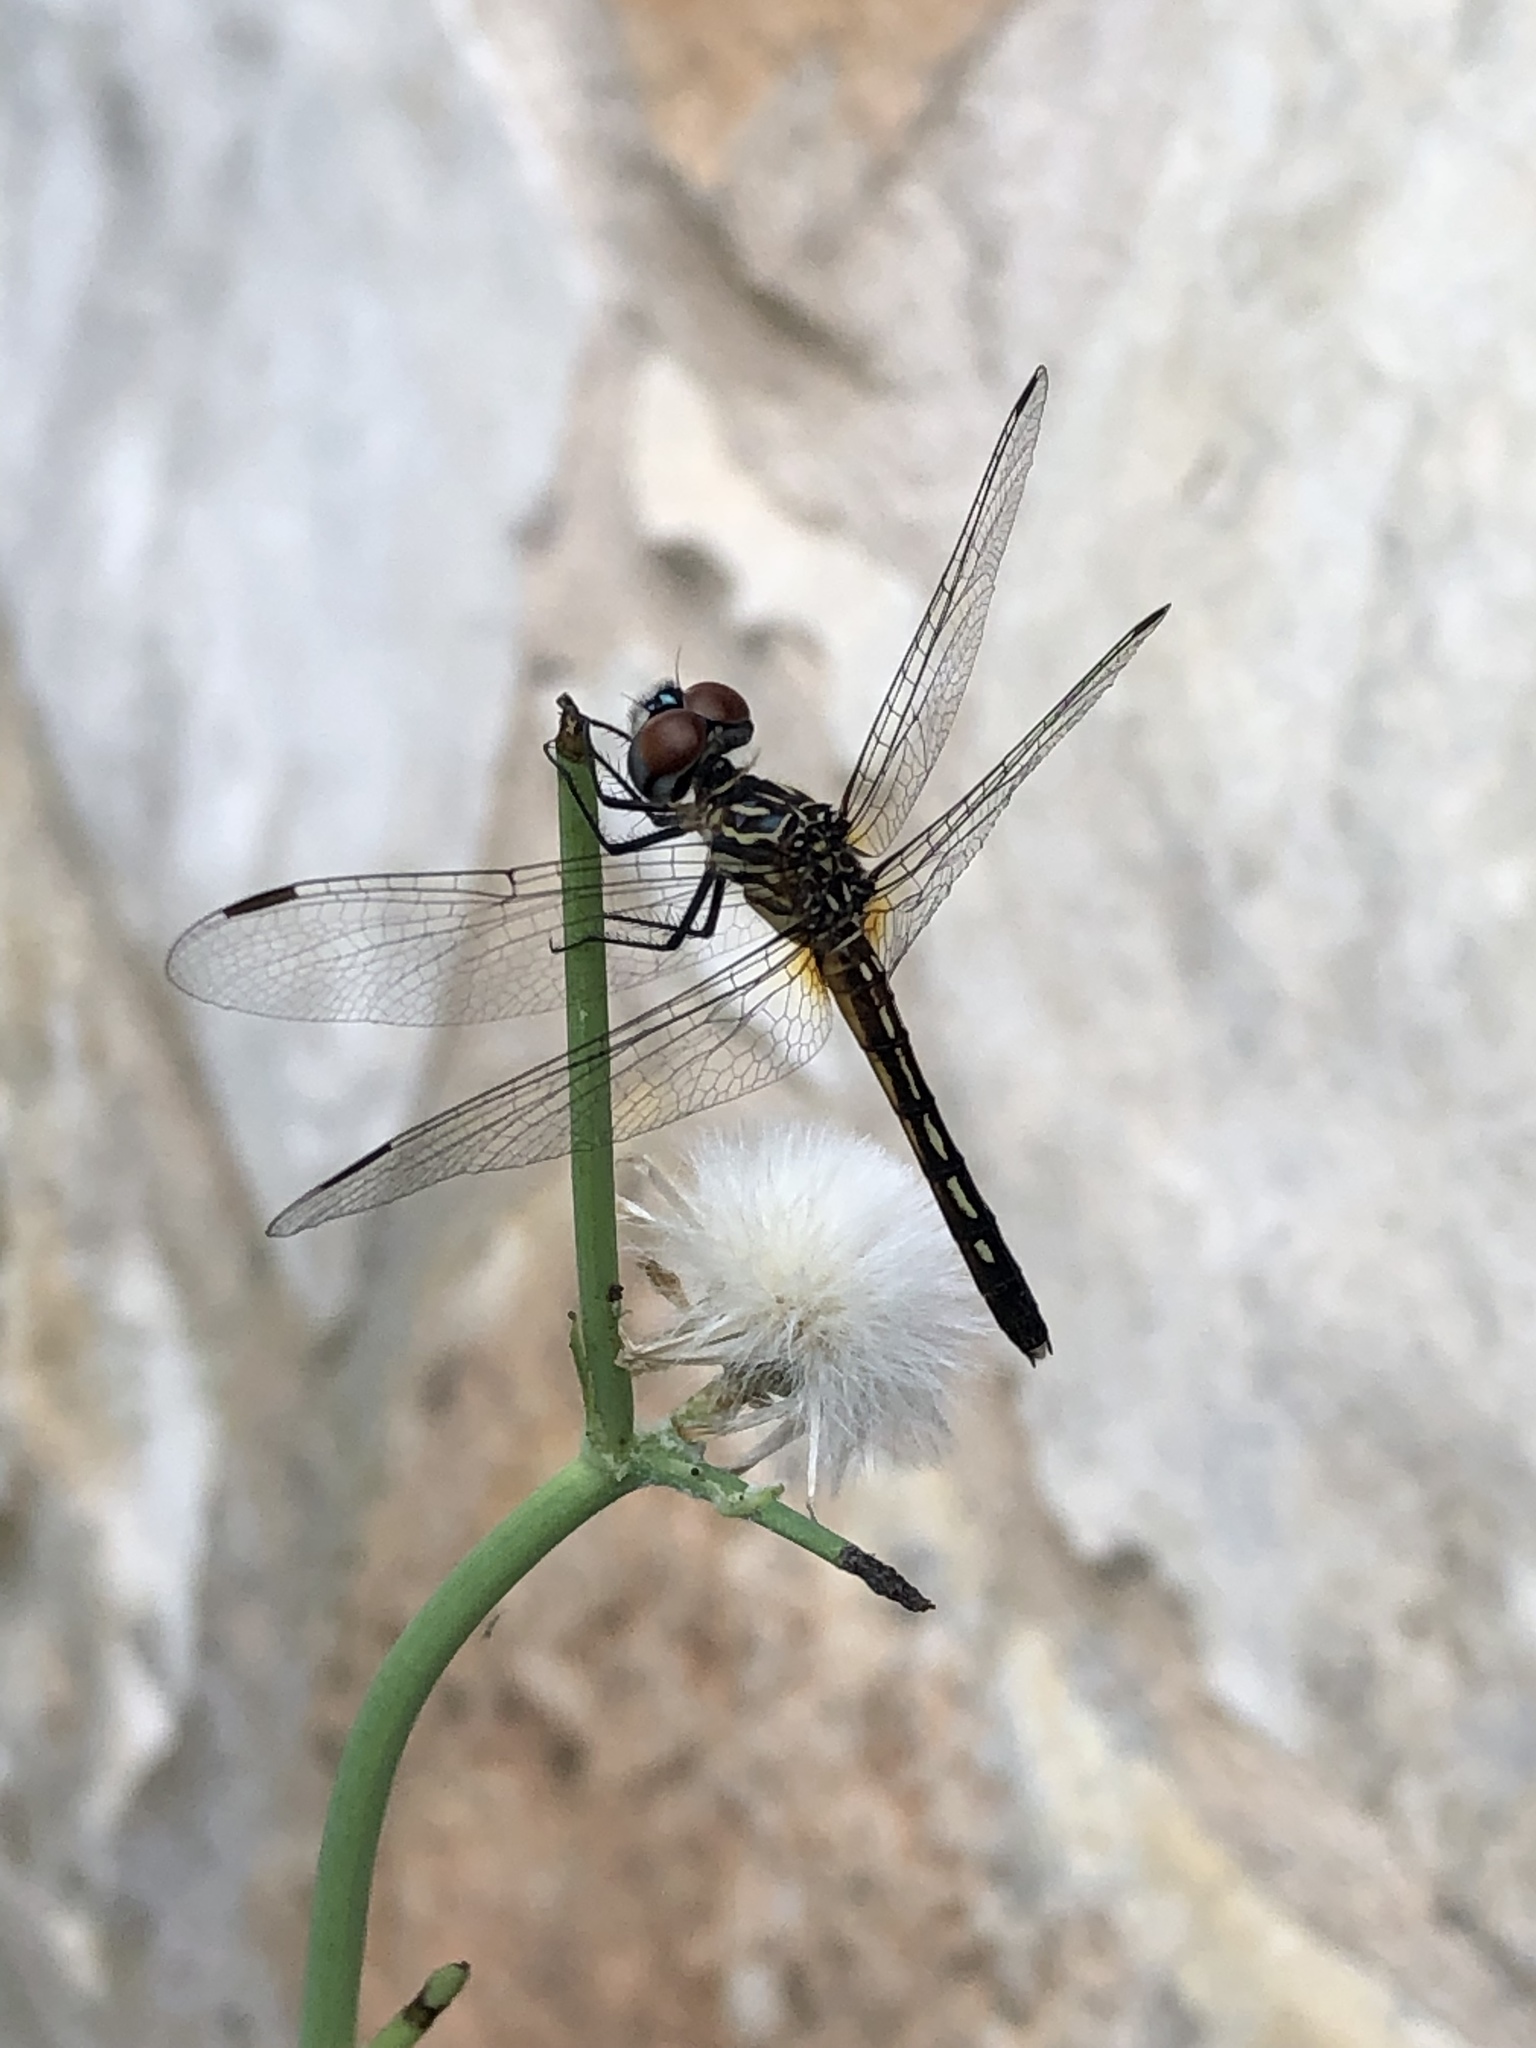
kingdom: Animalia
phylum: Arthropoda
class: Insecta
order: Odonata
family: Libellulidae
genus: Pachydiplax
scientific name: Pachydiplax longipennis
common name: Blue dasher
